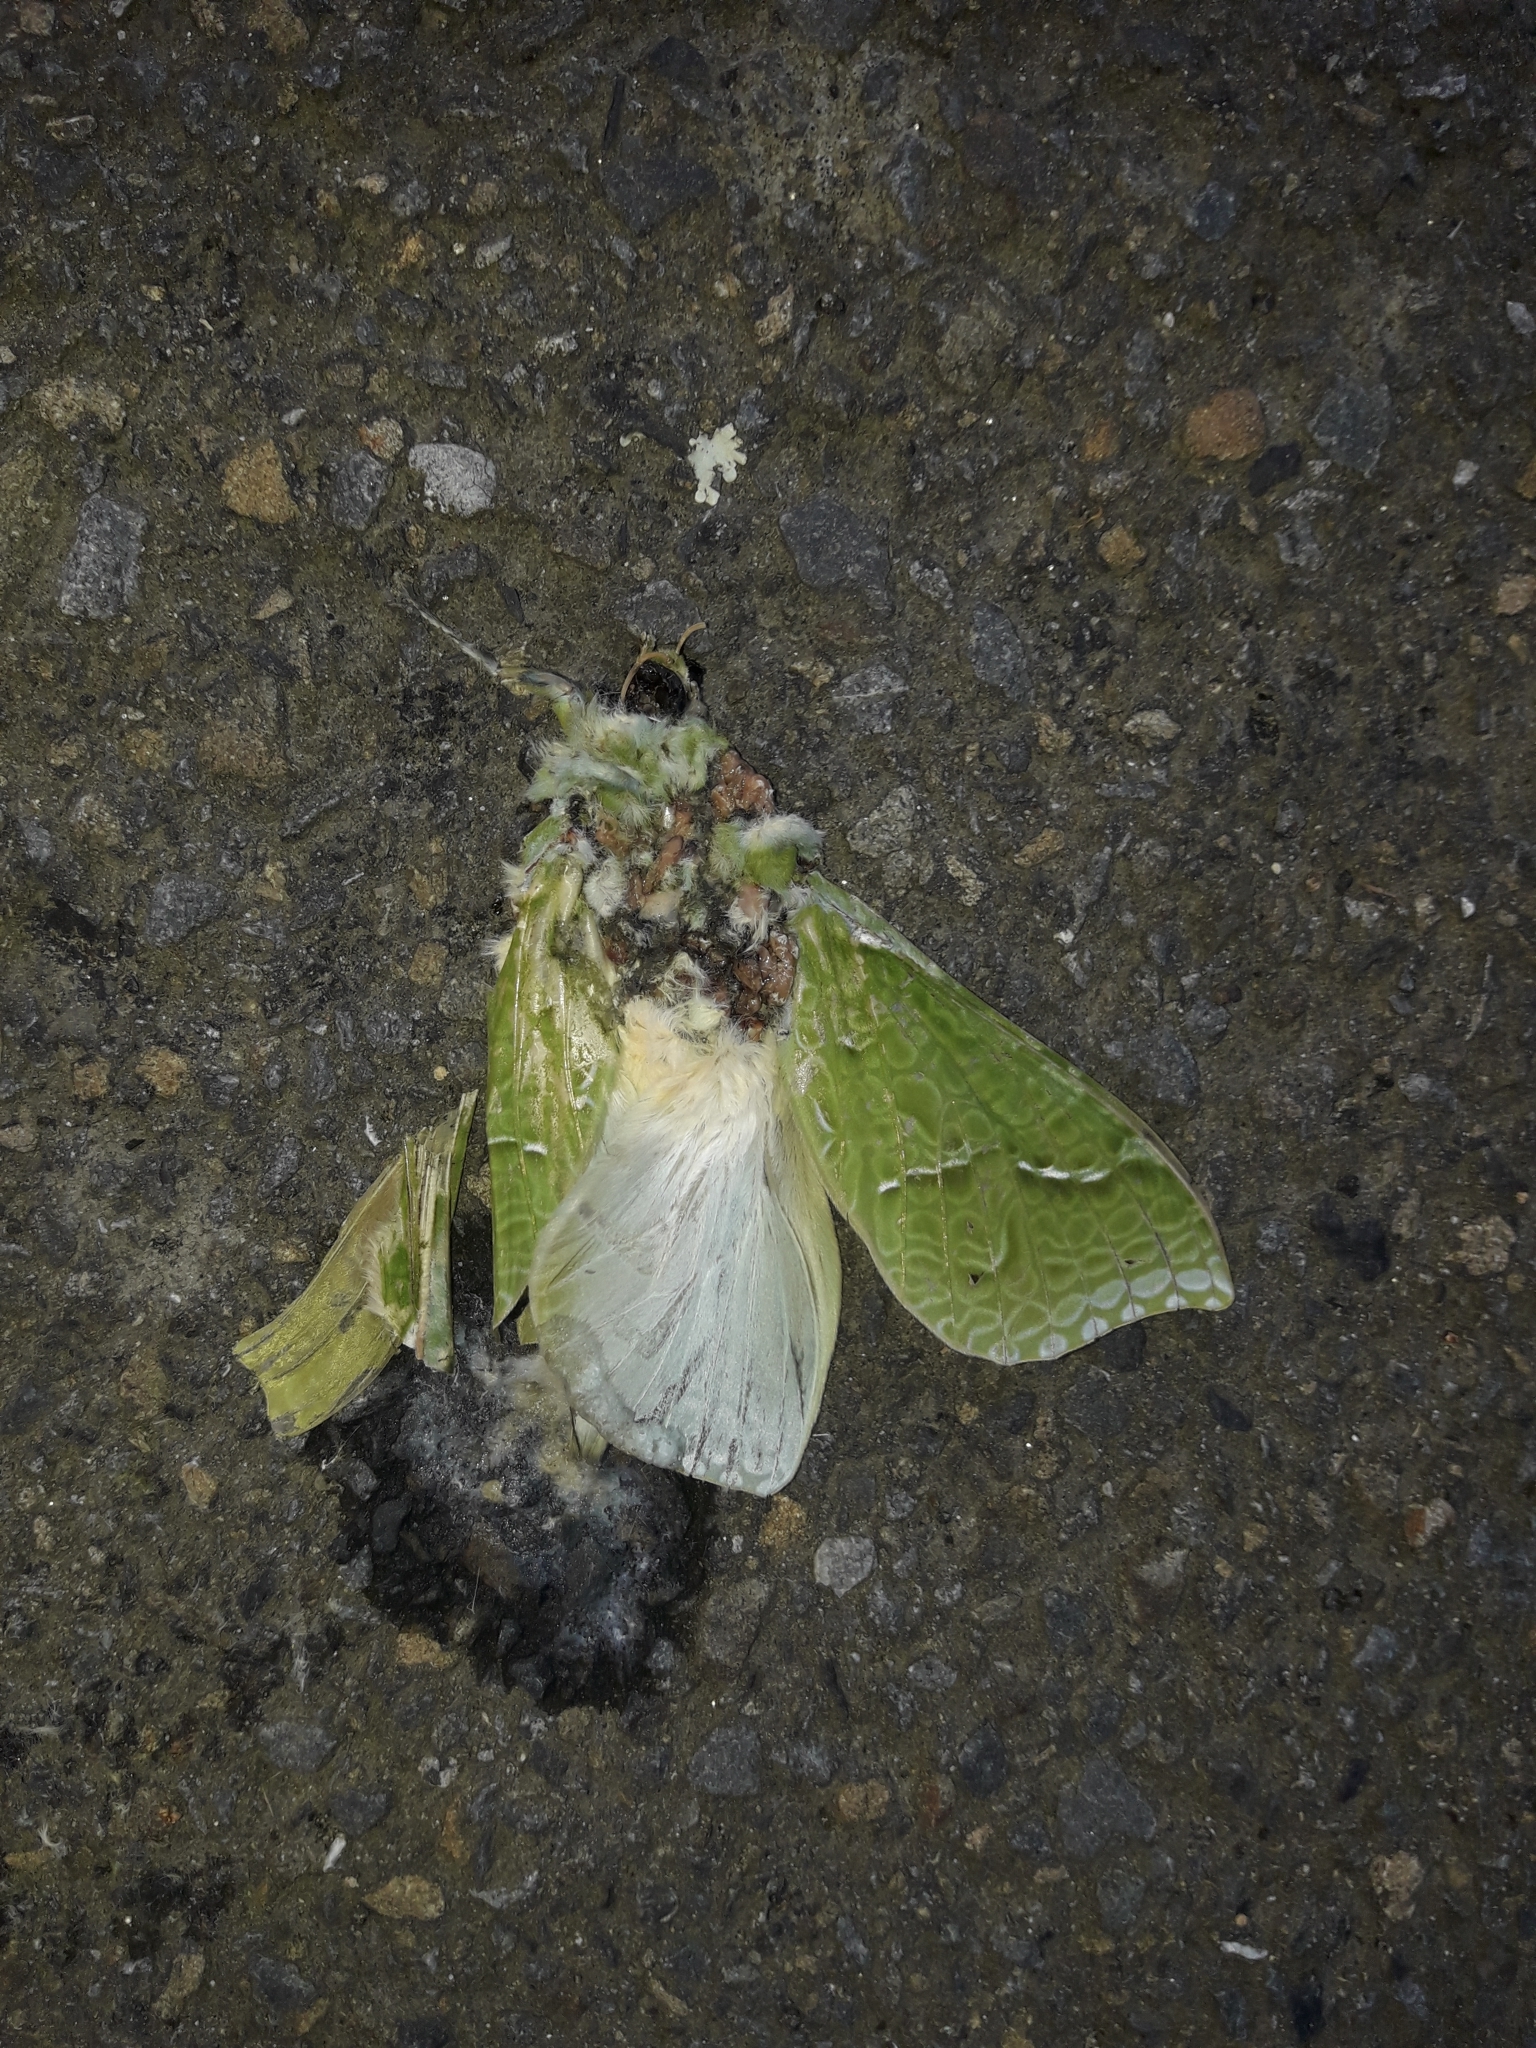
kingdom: Animalia
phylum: Arthropoda
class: Insecta
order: Lepidoptera
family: Hepialidae
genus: Aenetus
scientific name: Aenetus virescens
